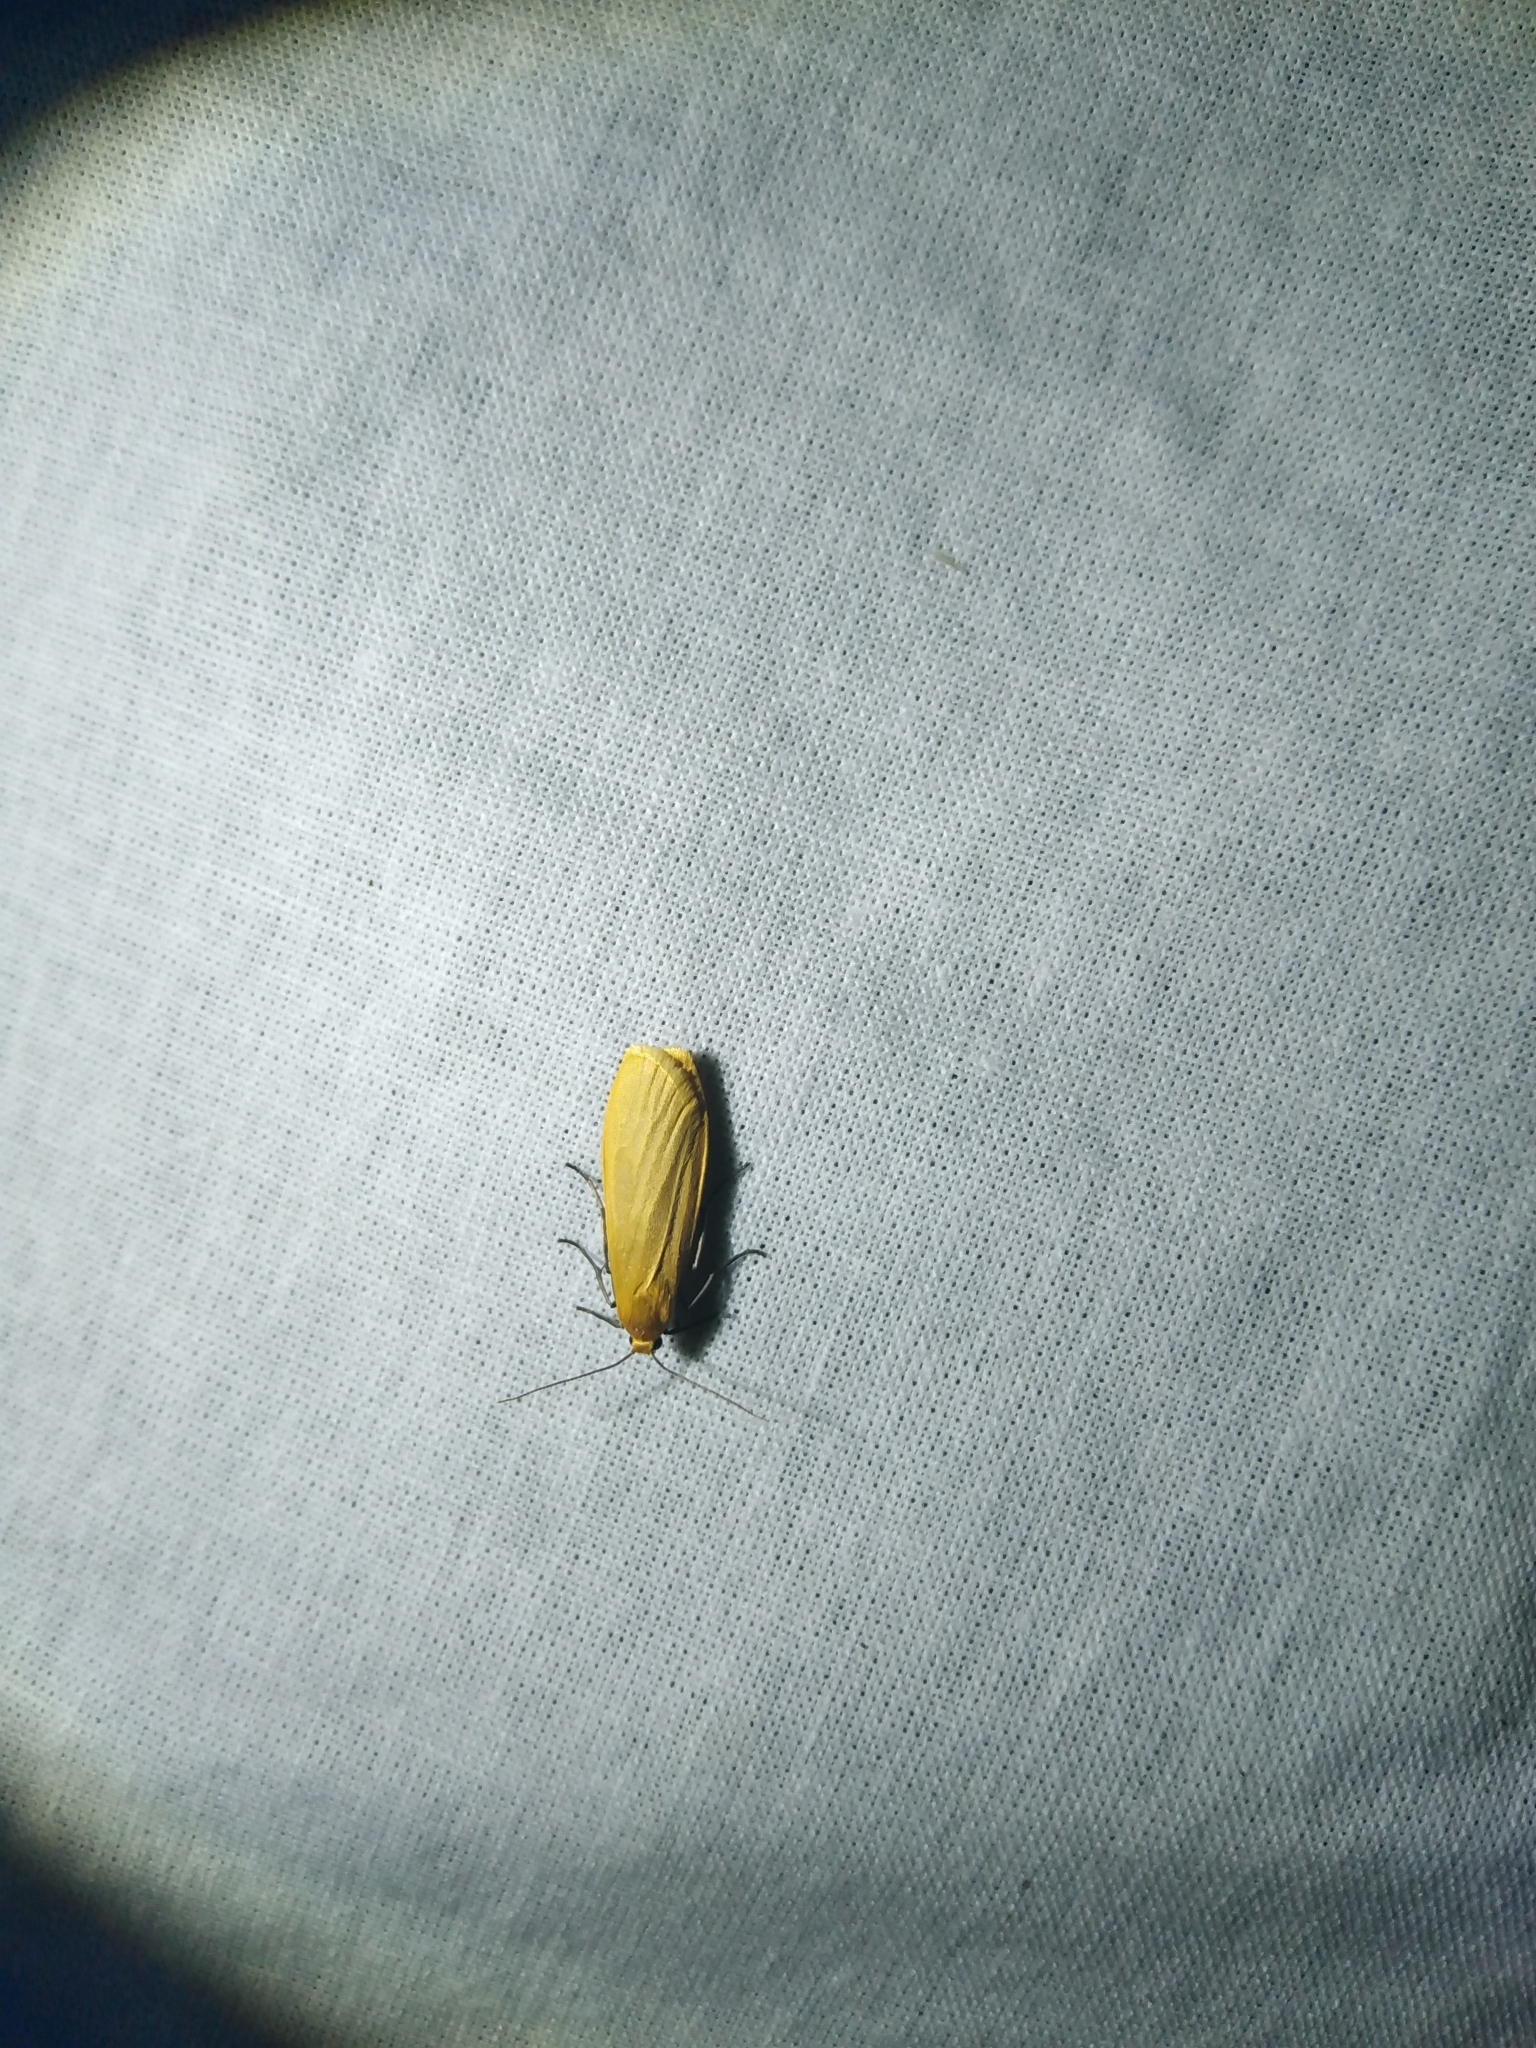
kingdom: Animalia
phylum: Arthropoda
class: Insecta
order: Lepidoptera
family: Erebidae
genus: Wittia
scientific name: Wittia sororcula
